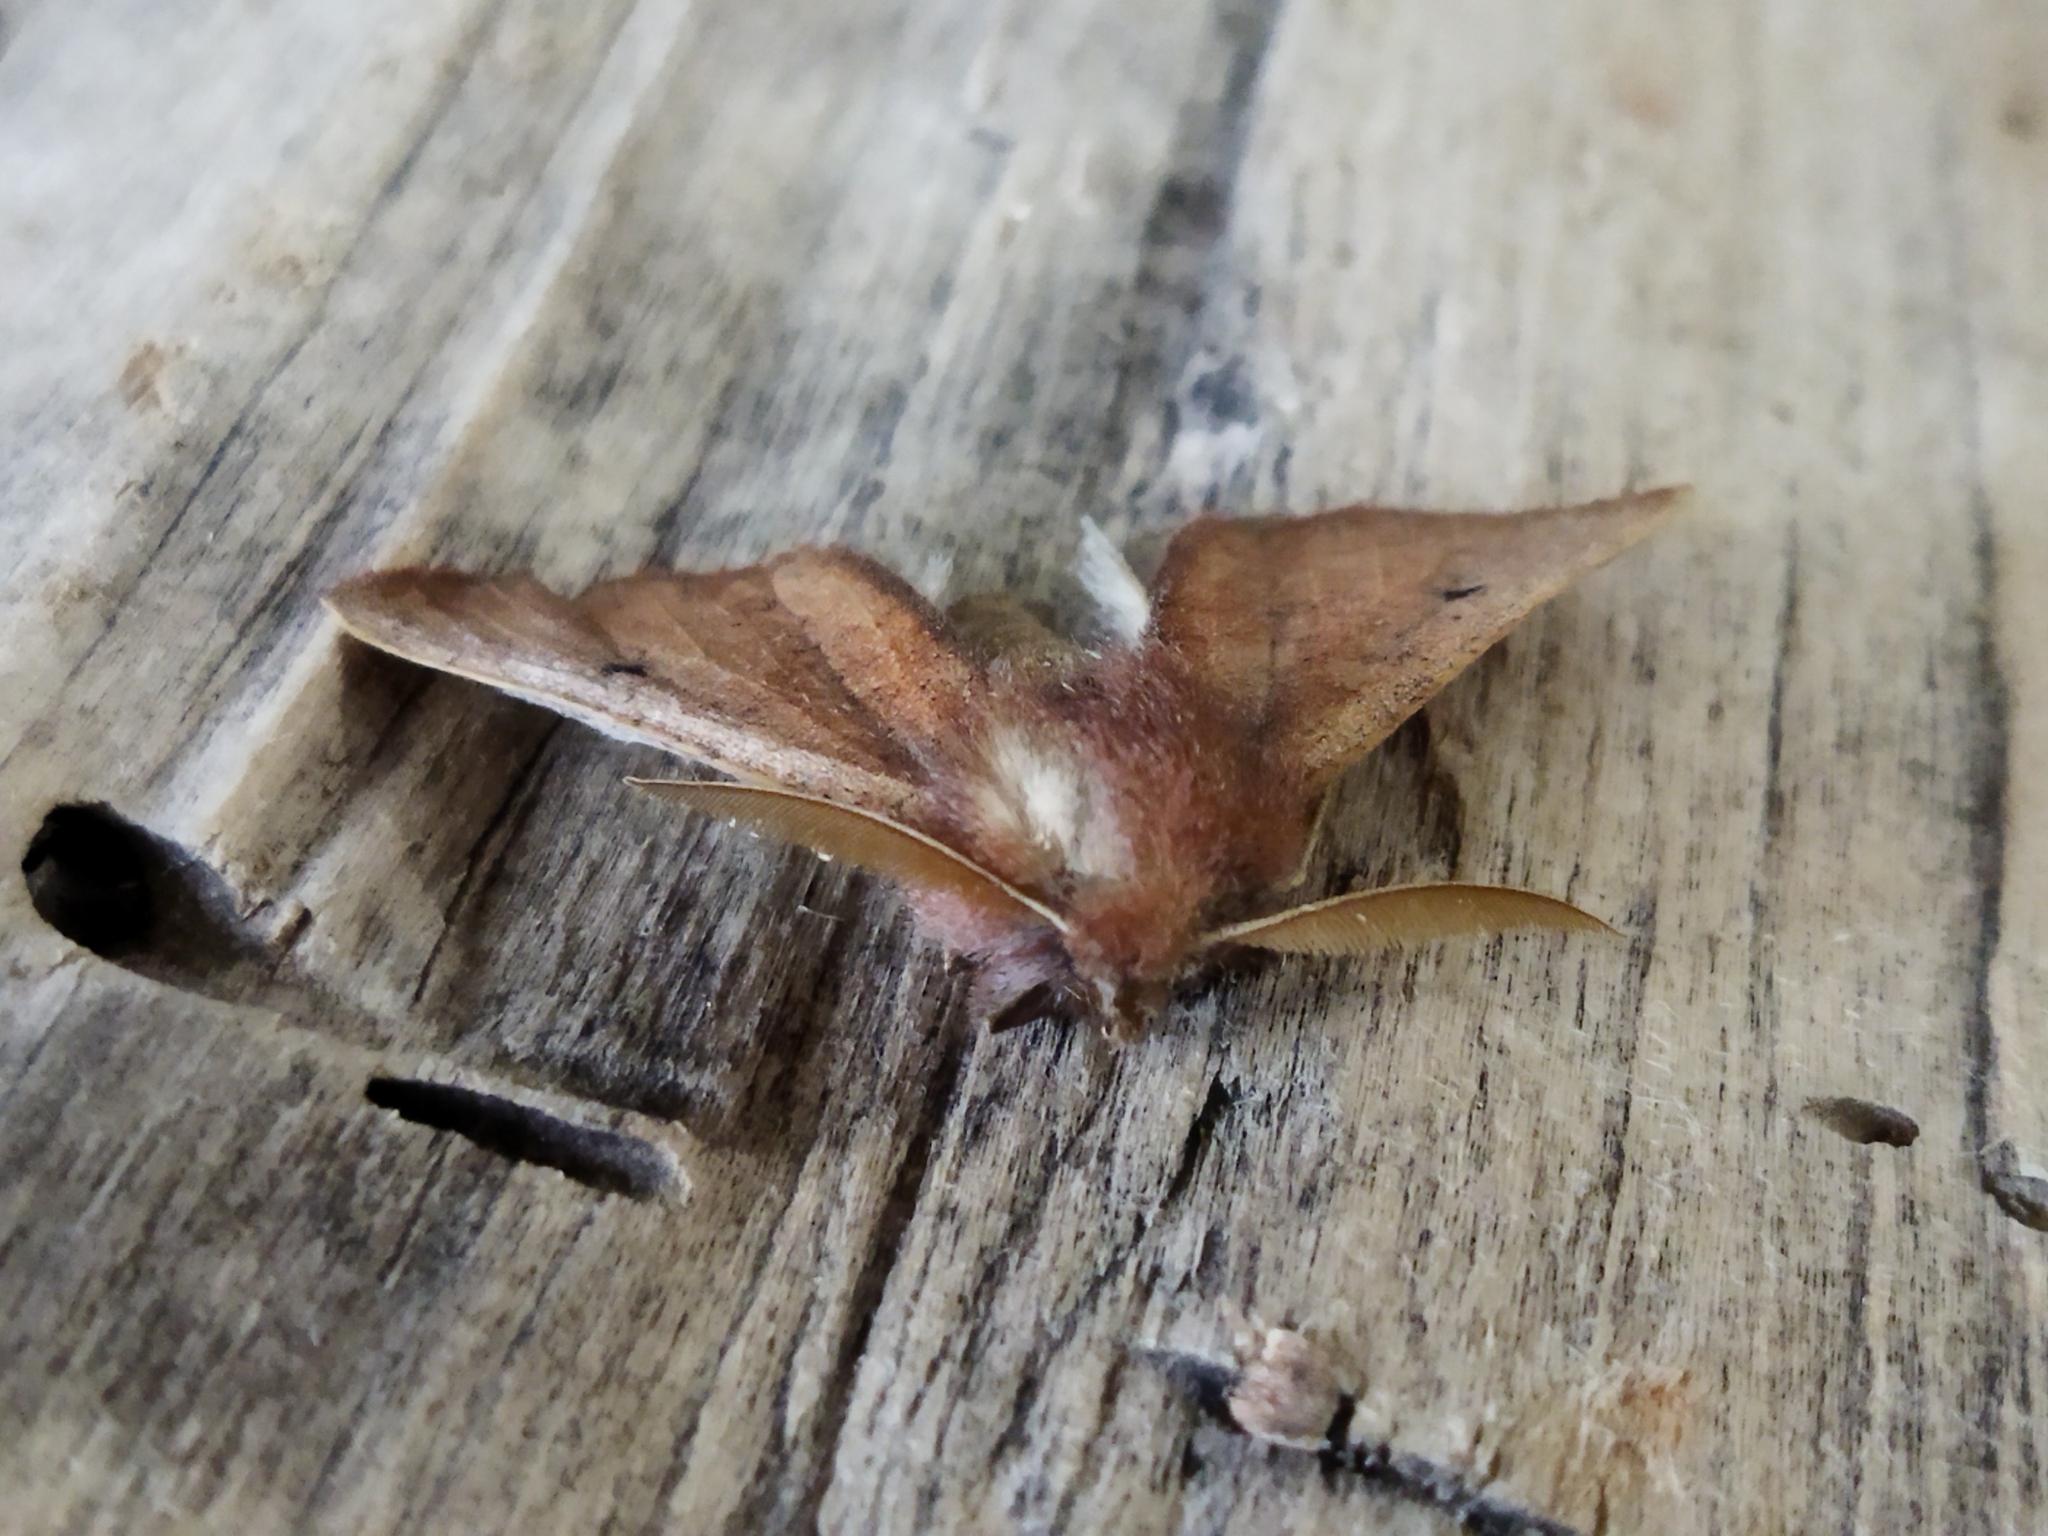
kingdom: Animalia
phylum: Arthropoda
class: Insecta
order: Lepidoptera
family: Geometridae
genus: Dasycorsa
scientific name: Dasycorsa modesta
